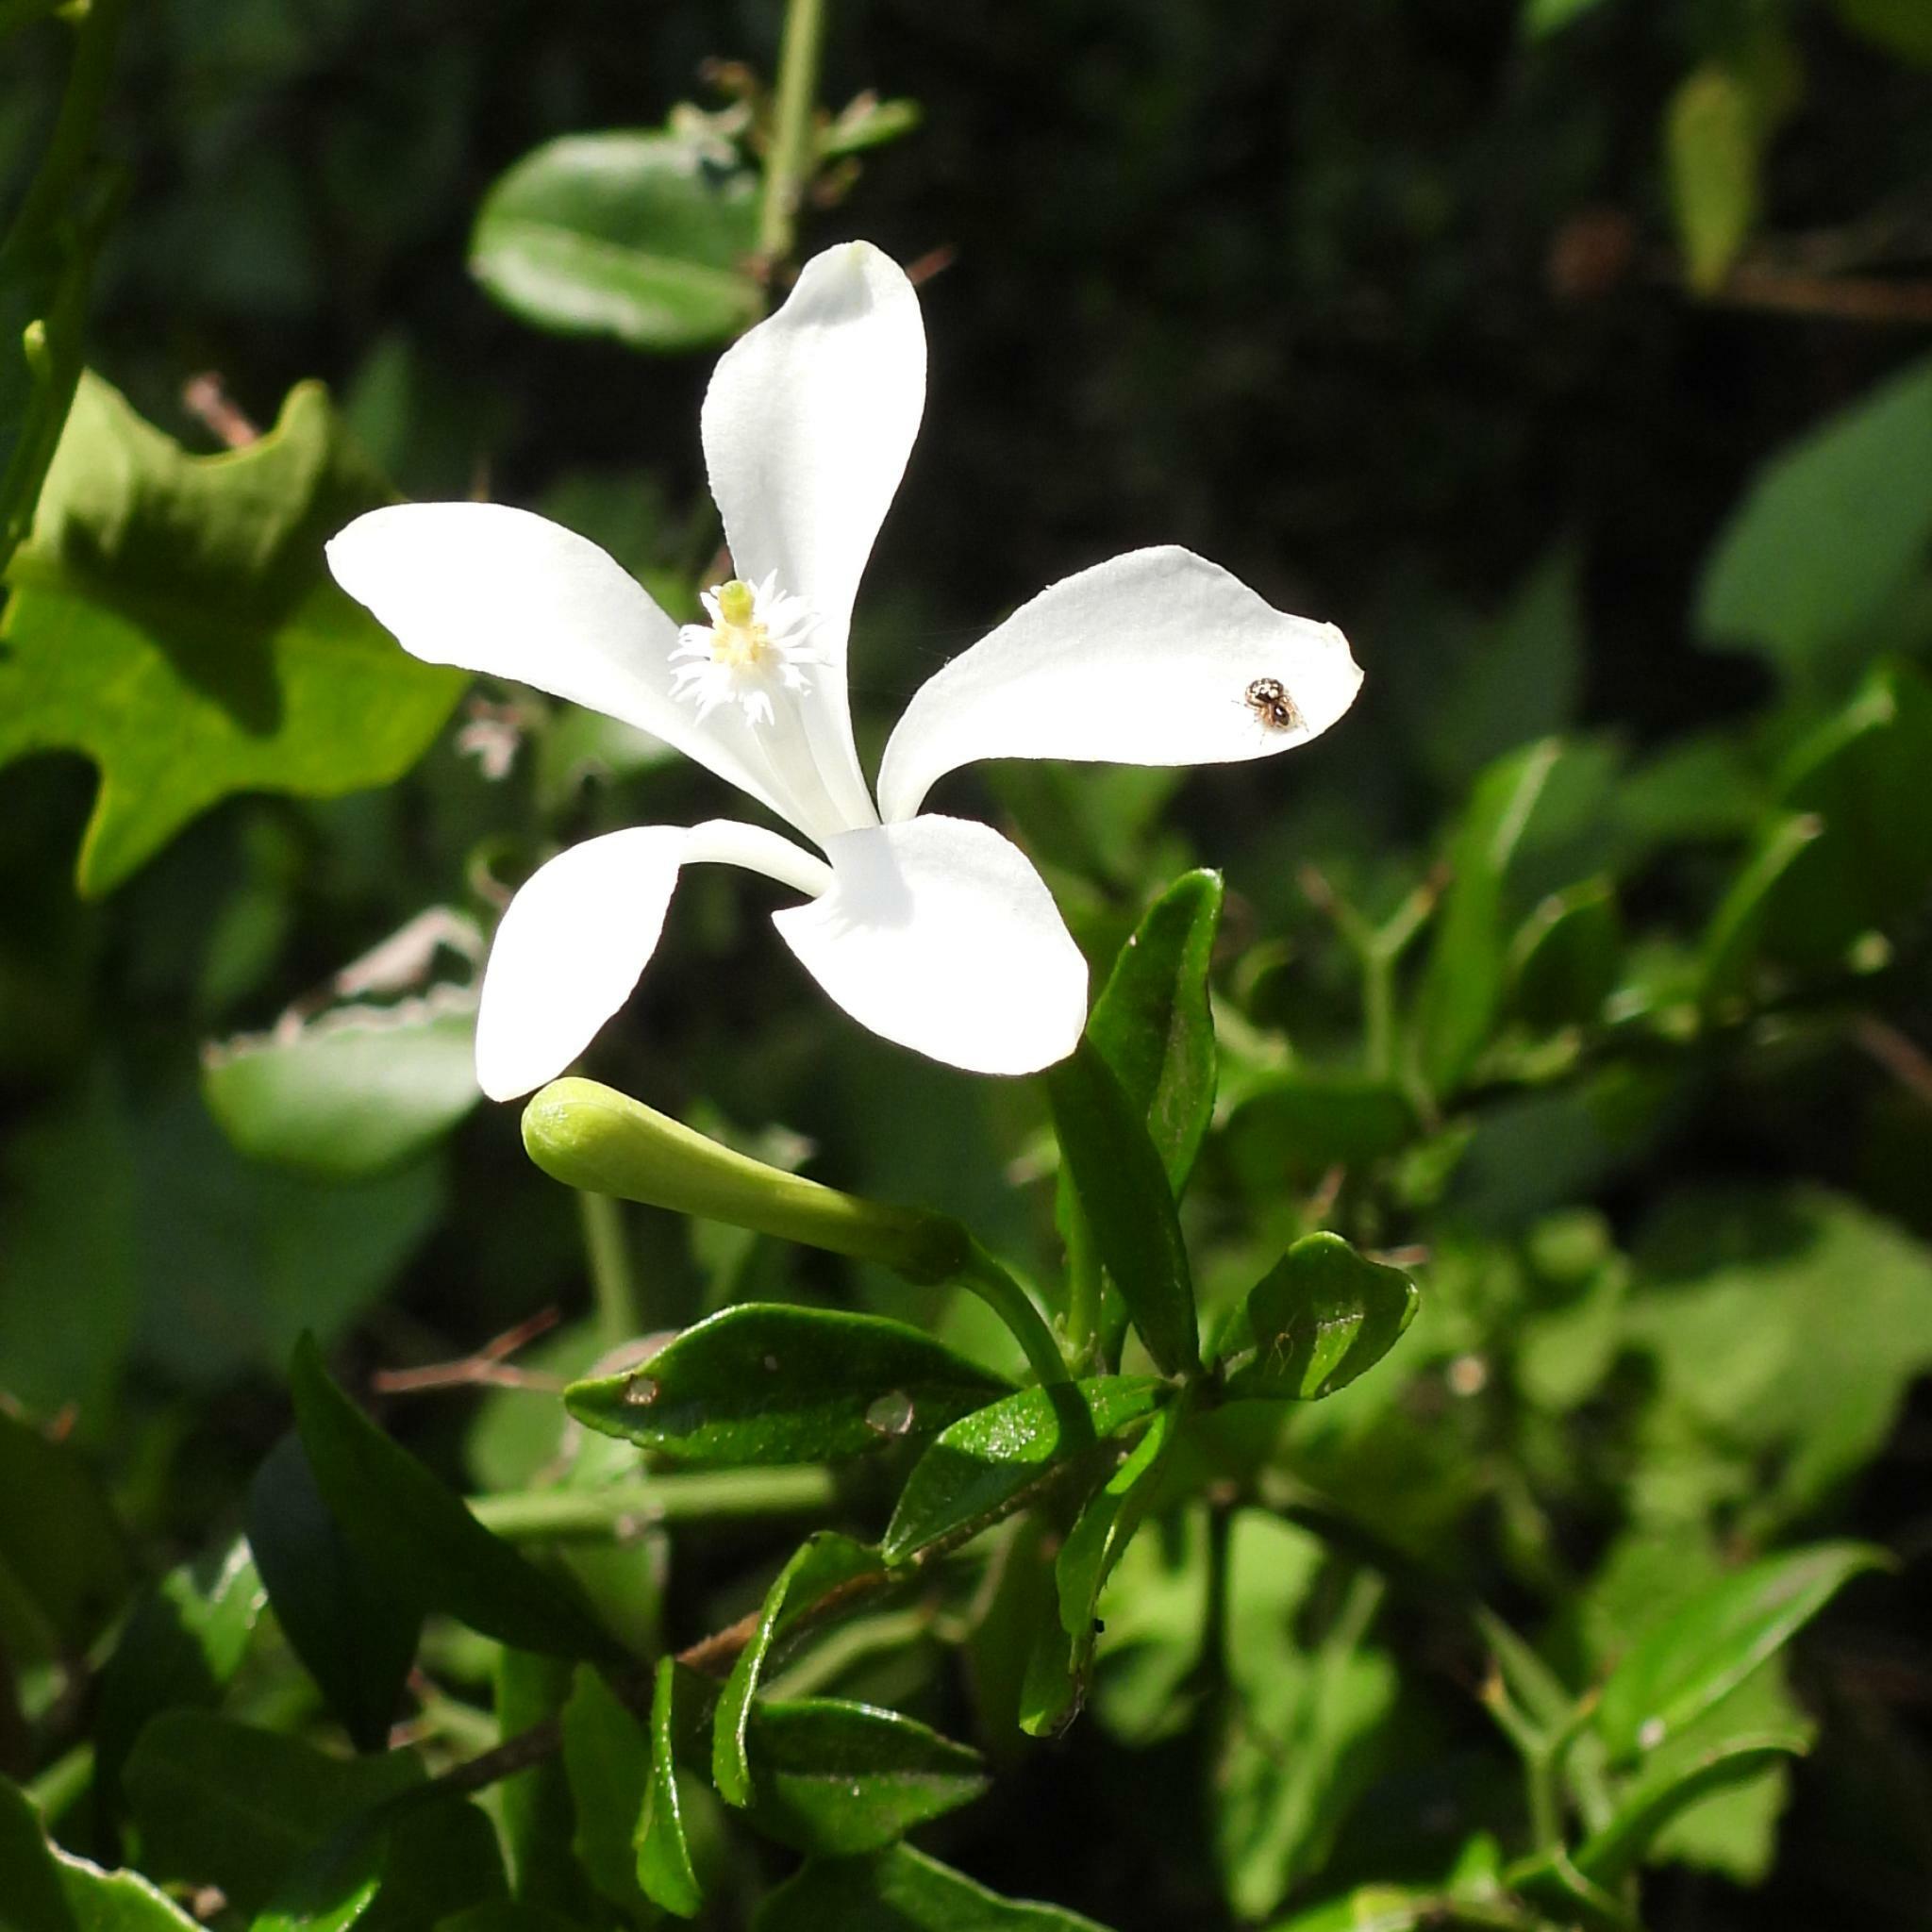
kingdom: Plantae
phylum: Tracheophyta
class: Magnoliopsida
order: Sapindales
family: Meliaceae
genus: Turraea
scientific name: Turraea obtusifolia
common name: Small honeysuckle tree
